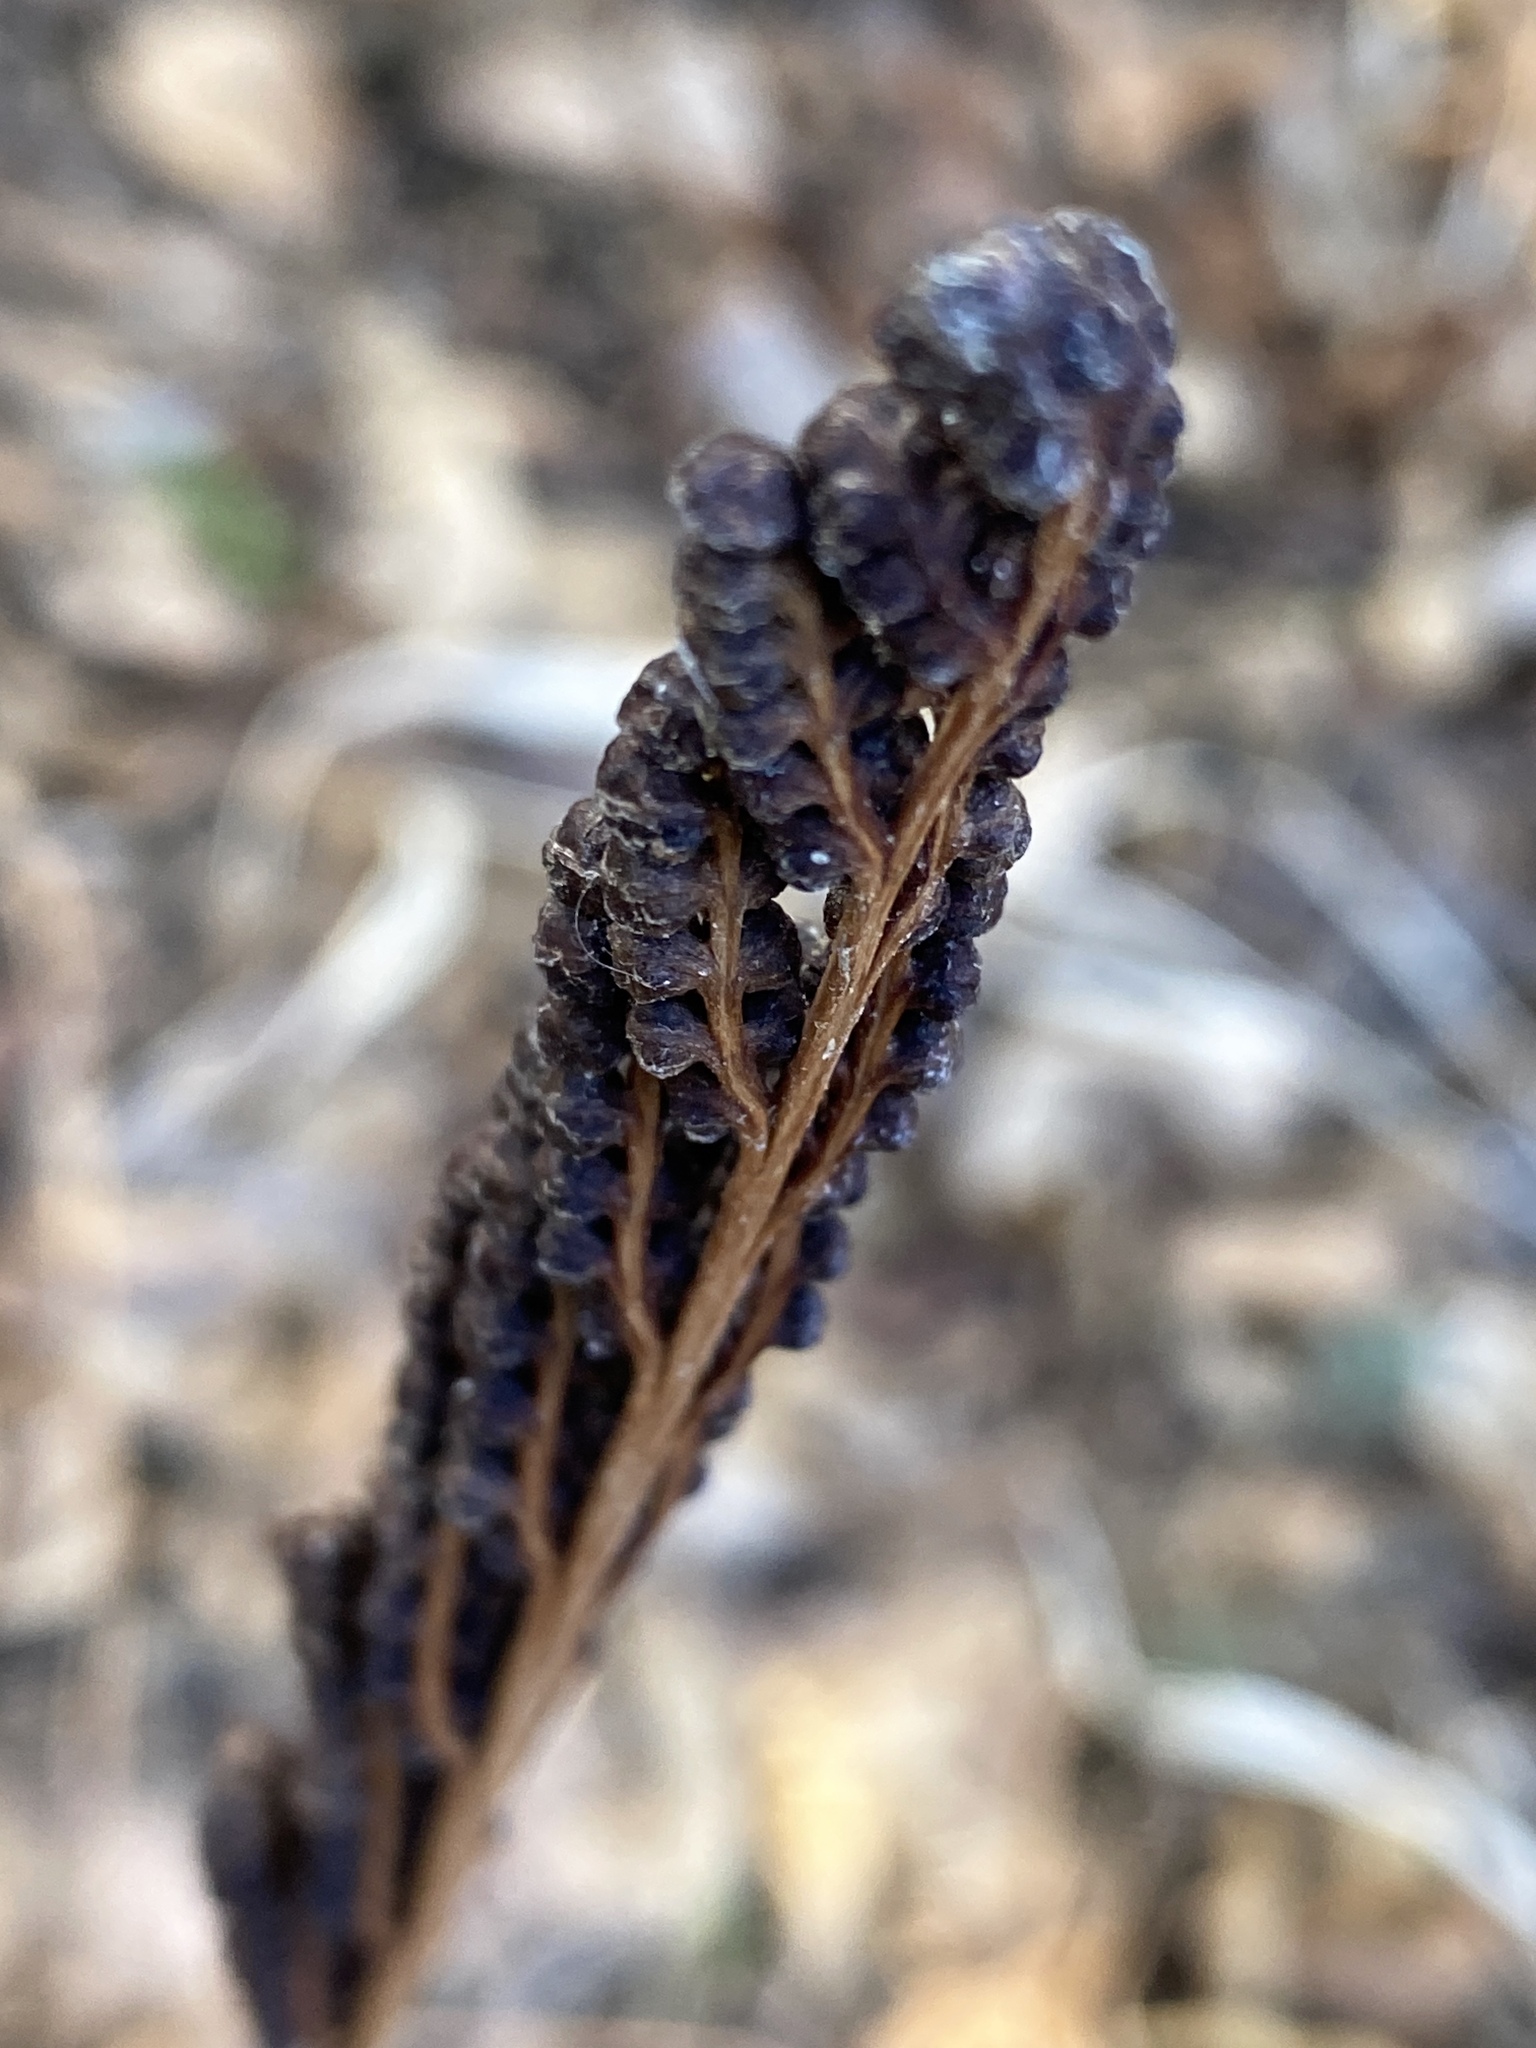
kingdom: Plantae
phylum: Tracheophyta
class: Polypodiopsida
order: Polypodiales
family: Onocleaceae
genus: Onoclea
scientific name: Onoclea sensibilis
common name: Sensitive fern
